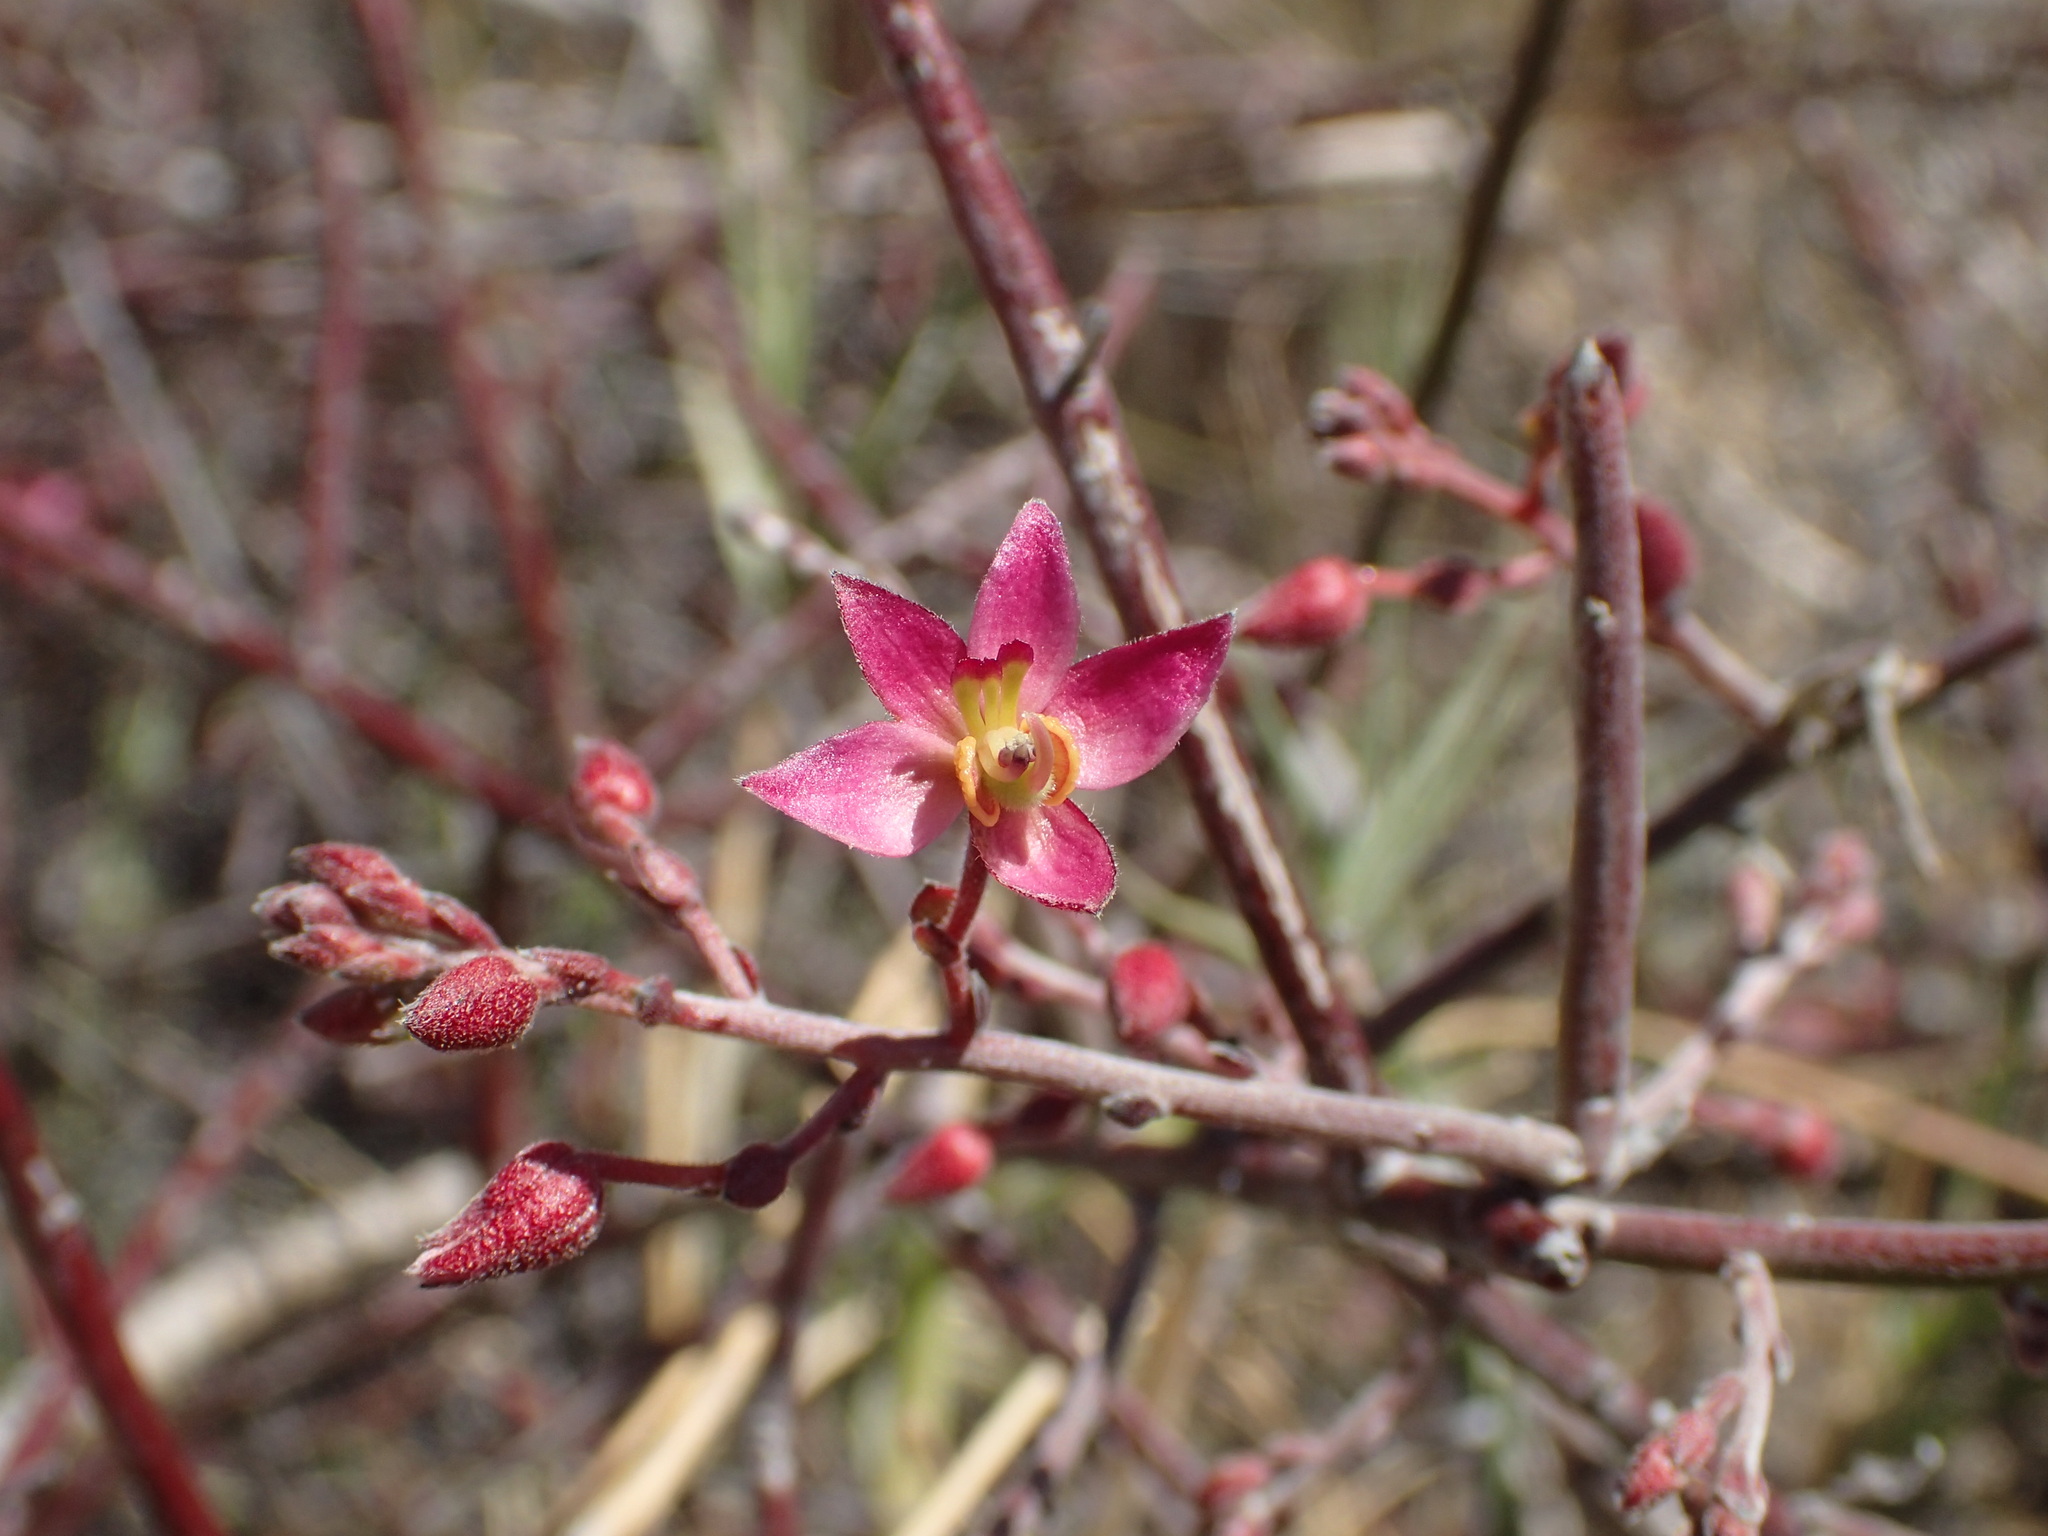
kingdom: Plantae
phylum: Tracheophyta
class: Magnoliopsida
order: Zygophyllales
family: Krameriaceae
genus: Krameria
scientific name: Krameria bicolor
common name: White ratany
